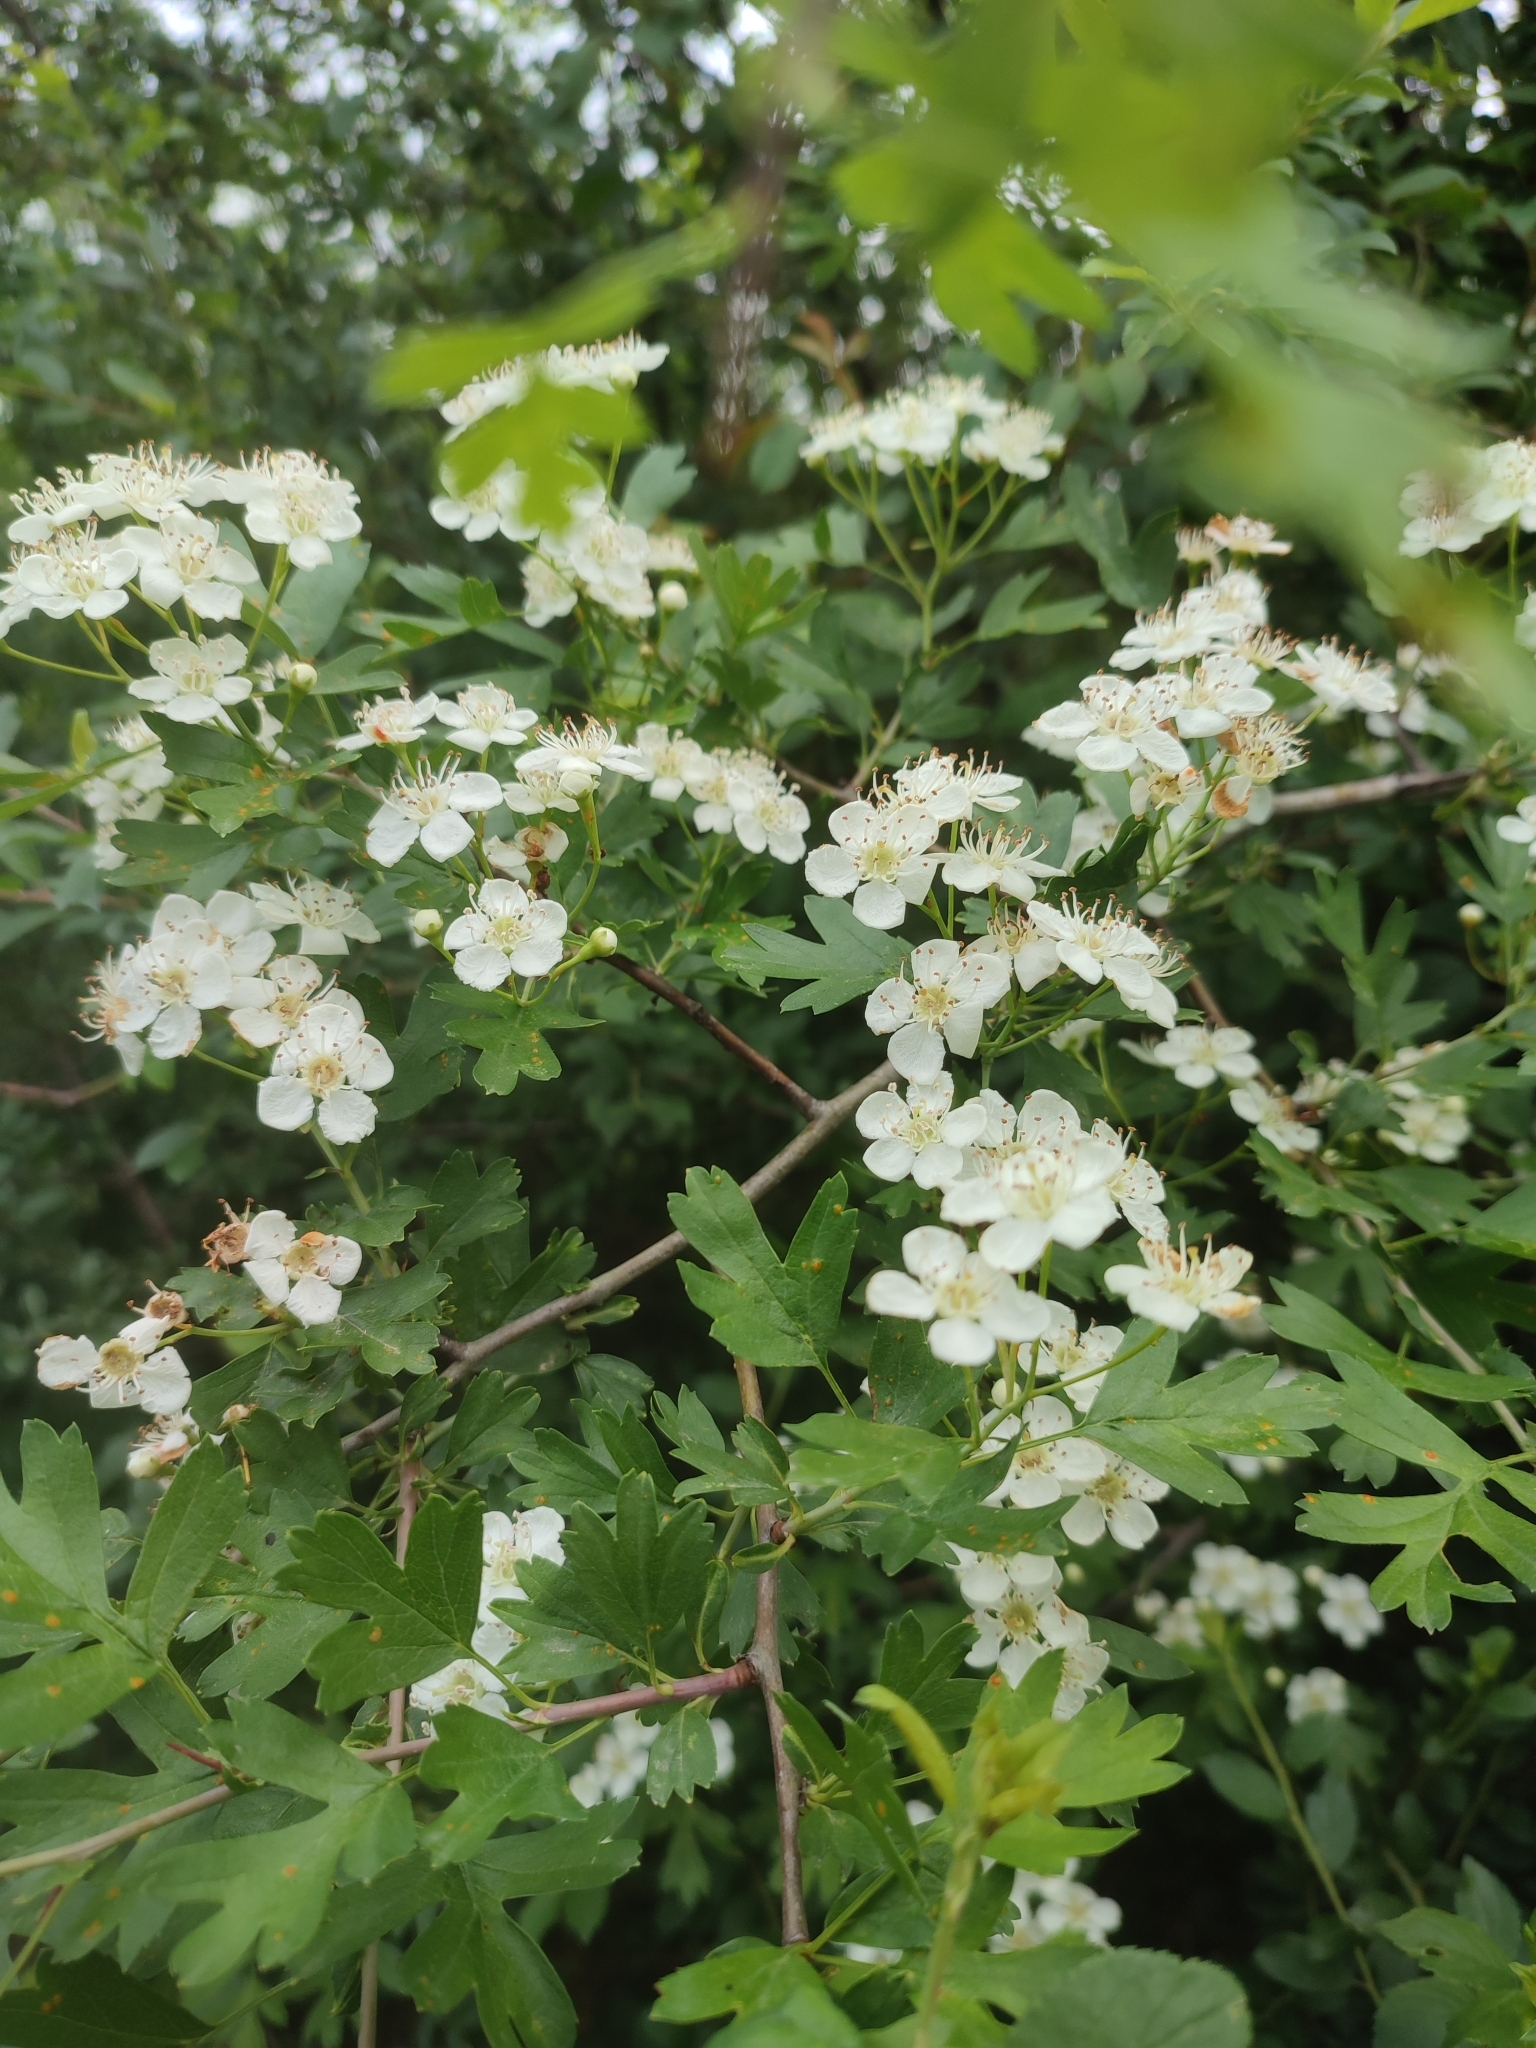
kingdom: Plantae
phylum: Tracheophyta
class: Magnoliopsida
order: Rosales
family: Rosaceae
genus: Crataegus
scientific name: Crataegus monogyna
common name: Hawthorn
